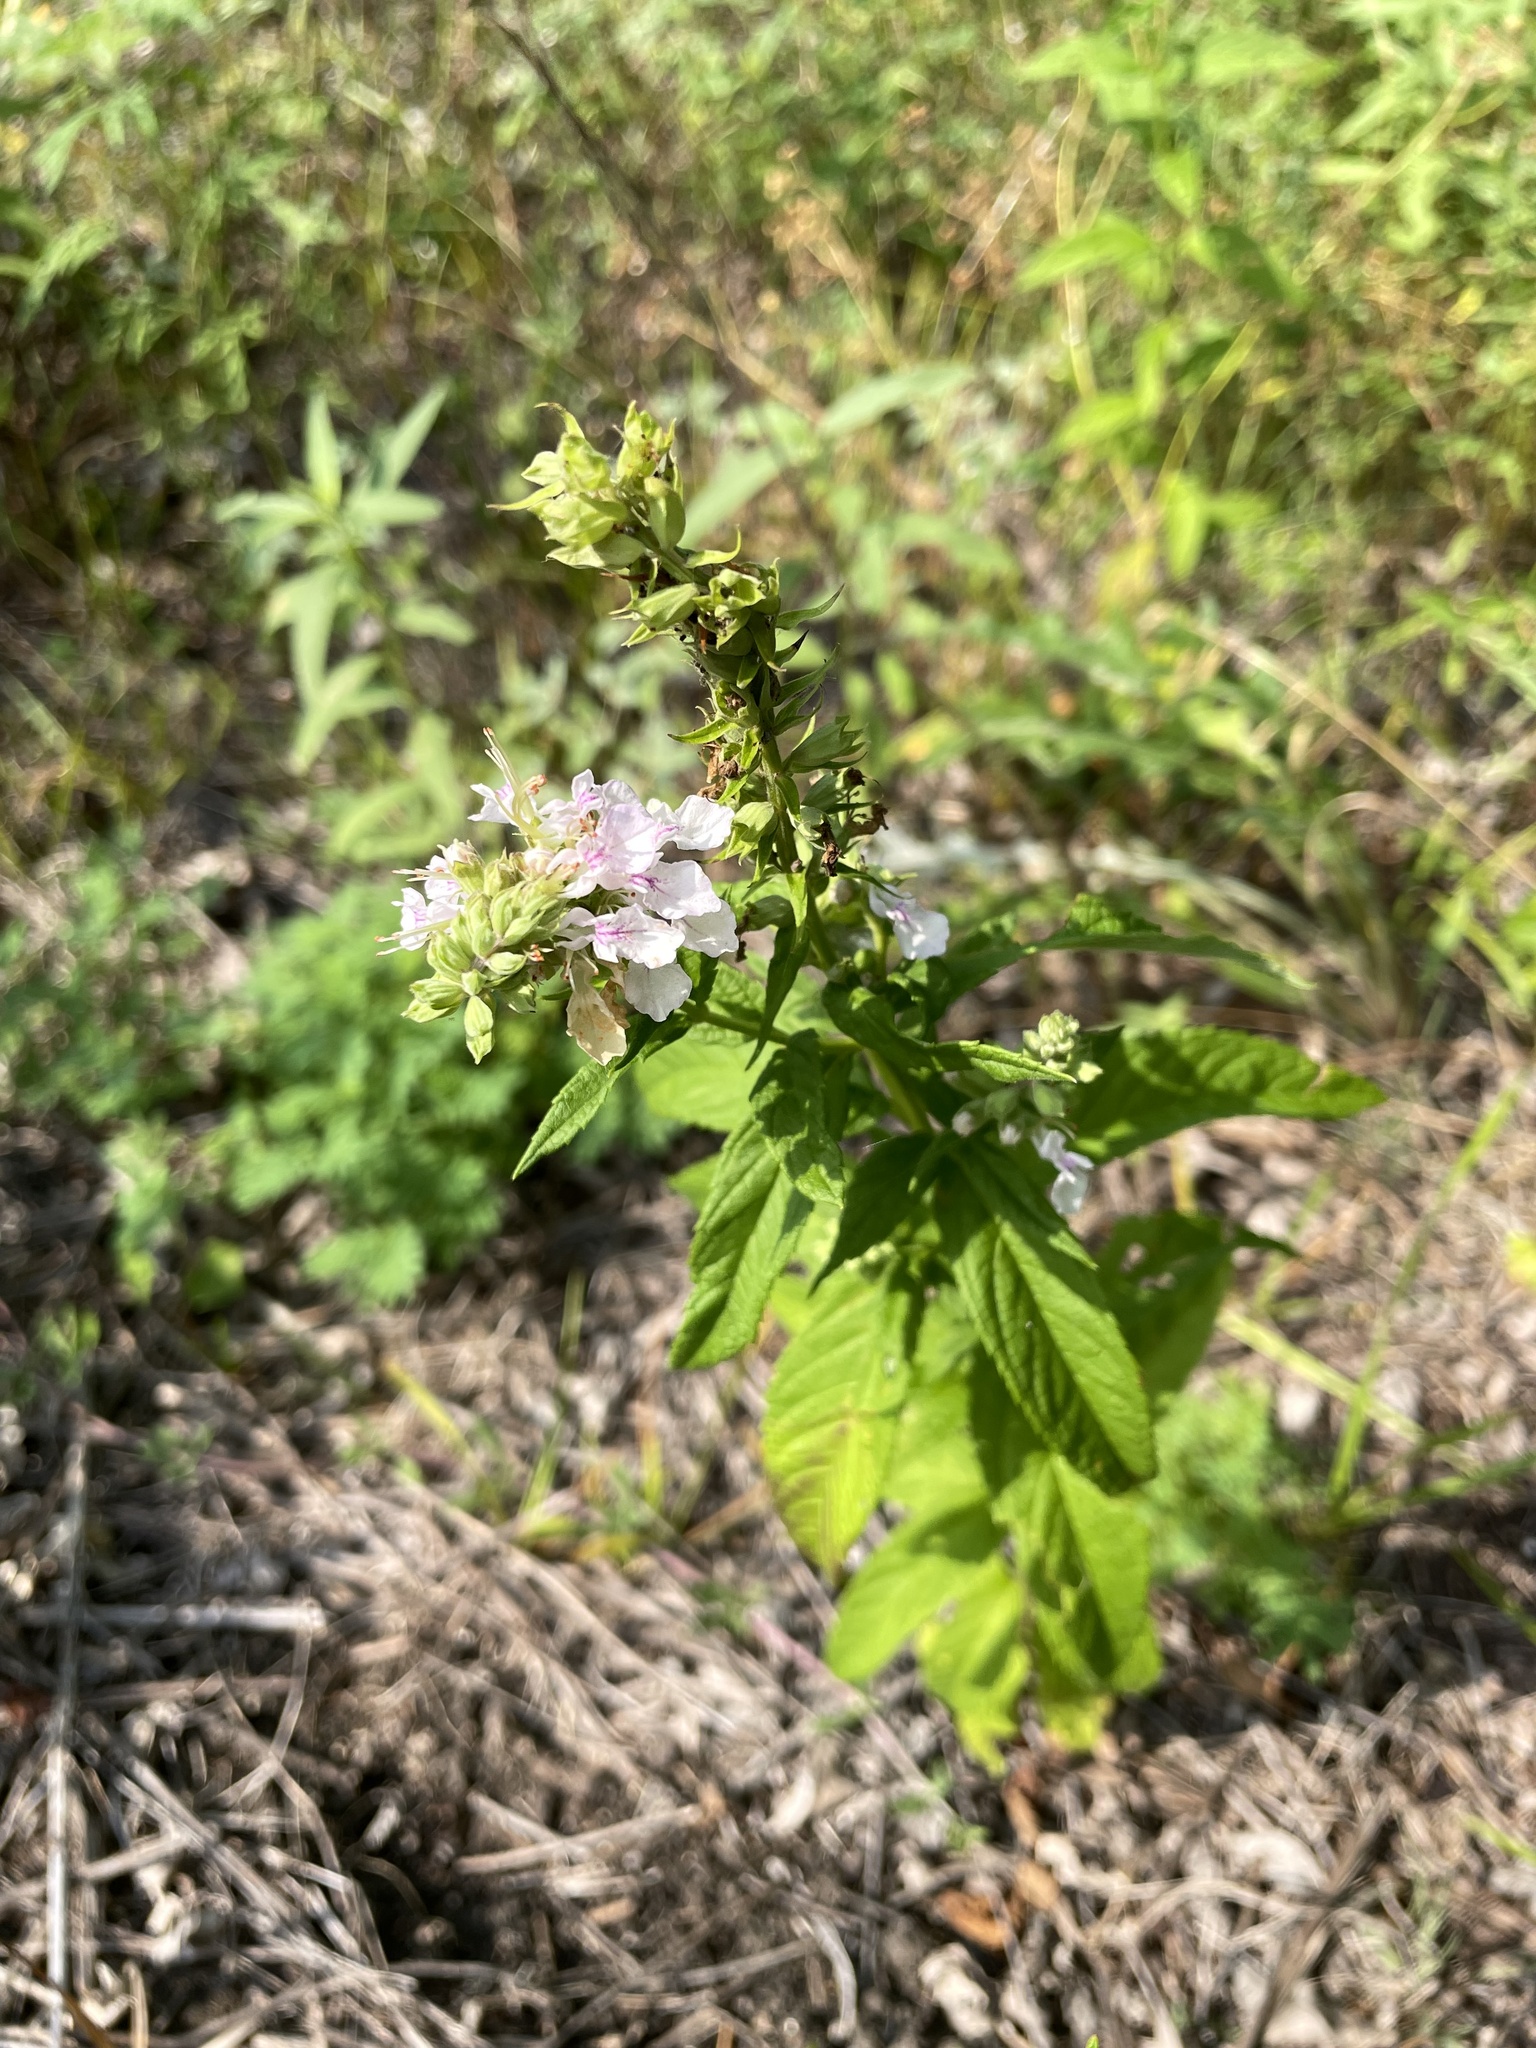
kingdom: Plantae
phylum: Tracheophyta
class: Magnoliopsida
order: Lamiales
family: Lamiaceae
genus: Teucrium
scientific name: Teucrium canadense
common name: American germander
